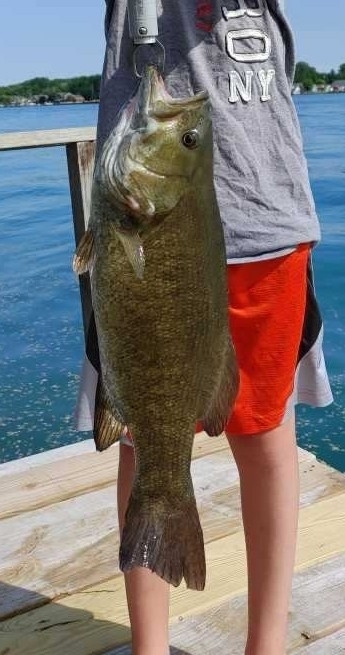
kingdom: Animalia
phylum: Chordata
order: Perciformes
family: Centrarchidae
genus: Micropterus
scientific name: Micropterus dolomieu
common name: Smallmouth bass
